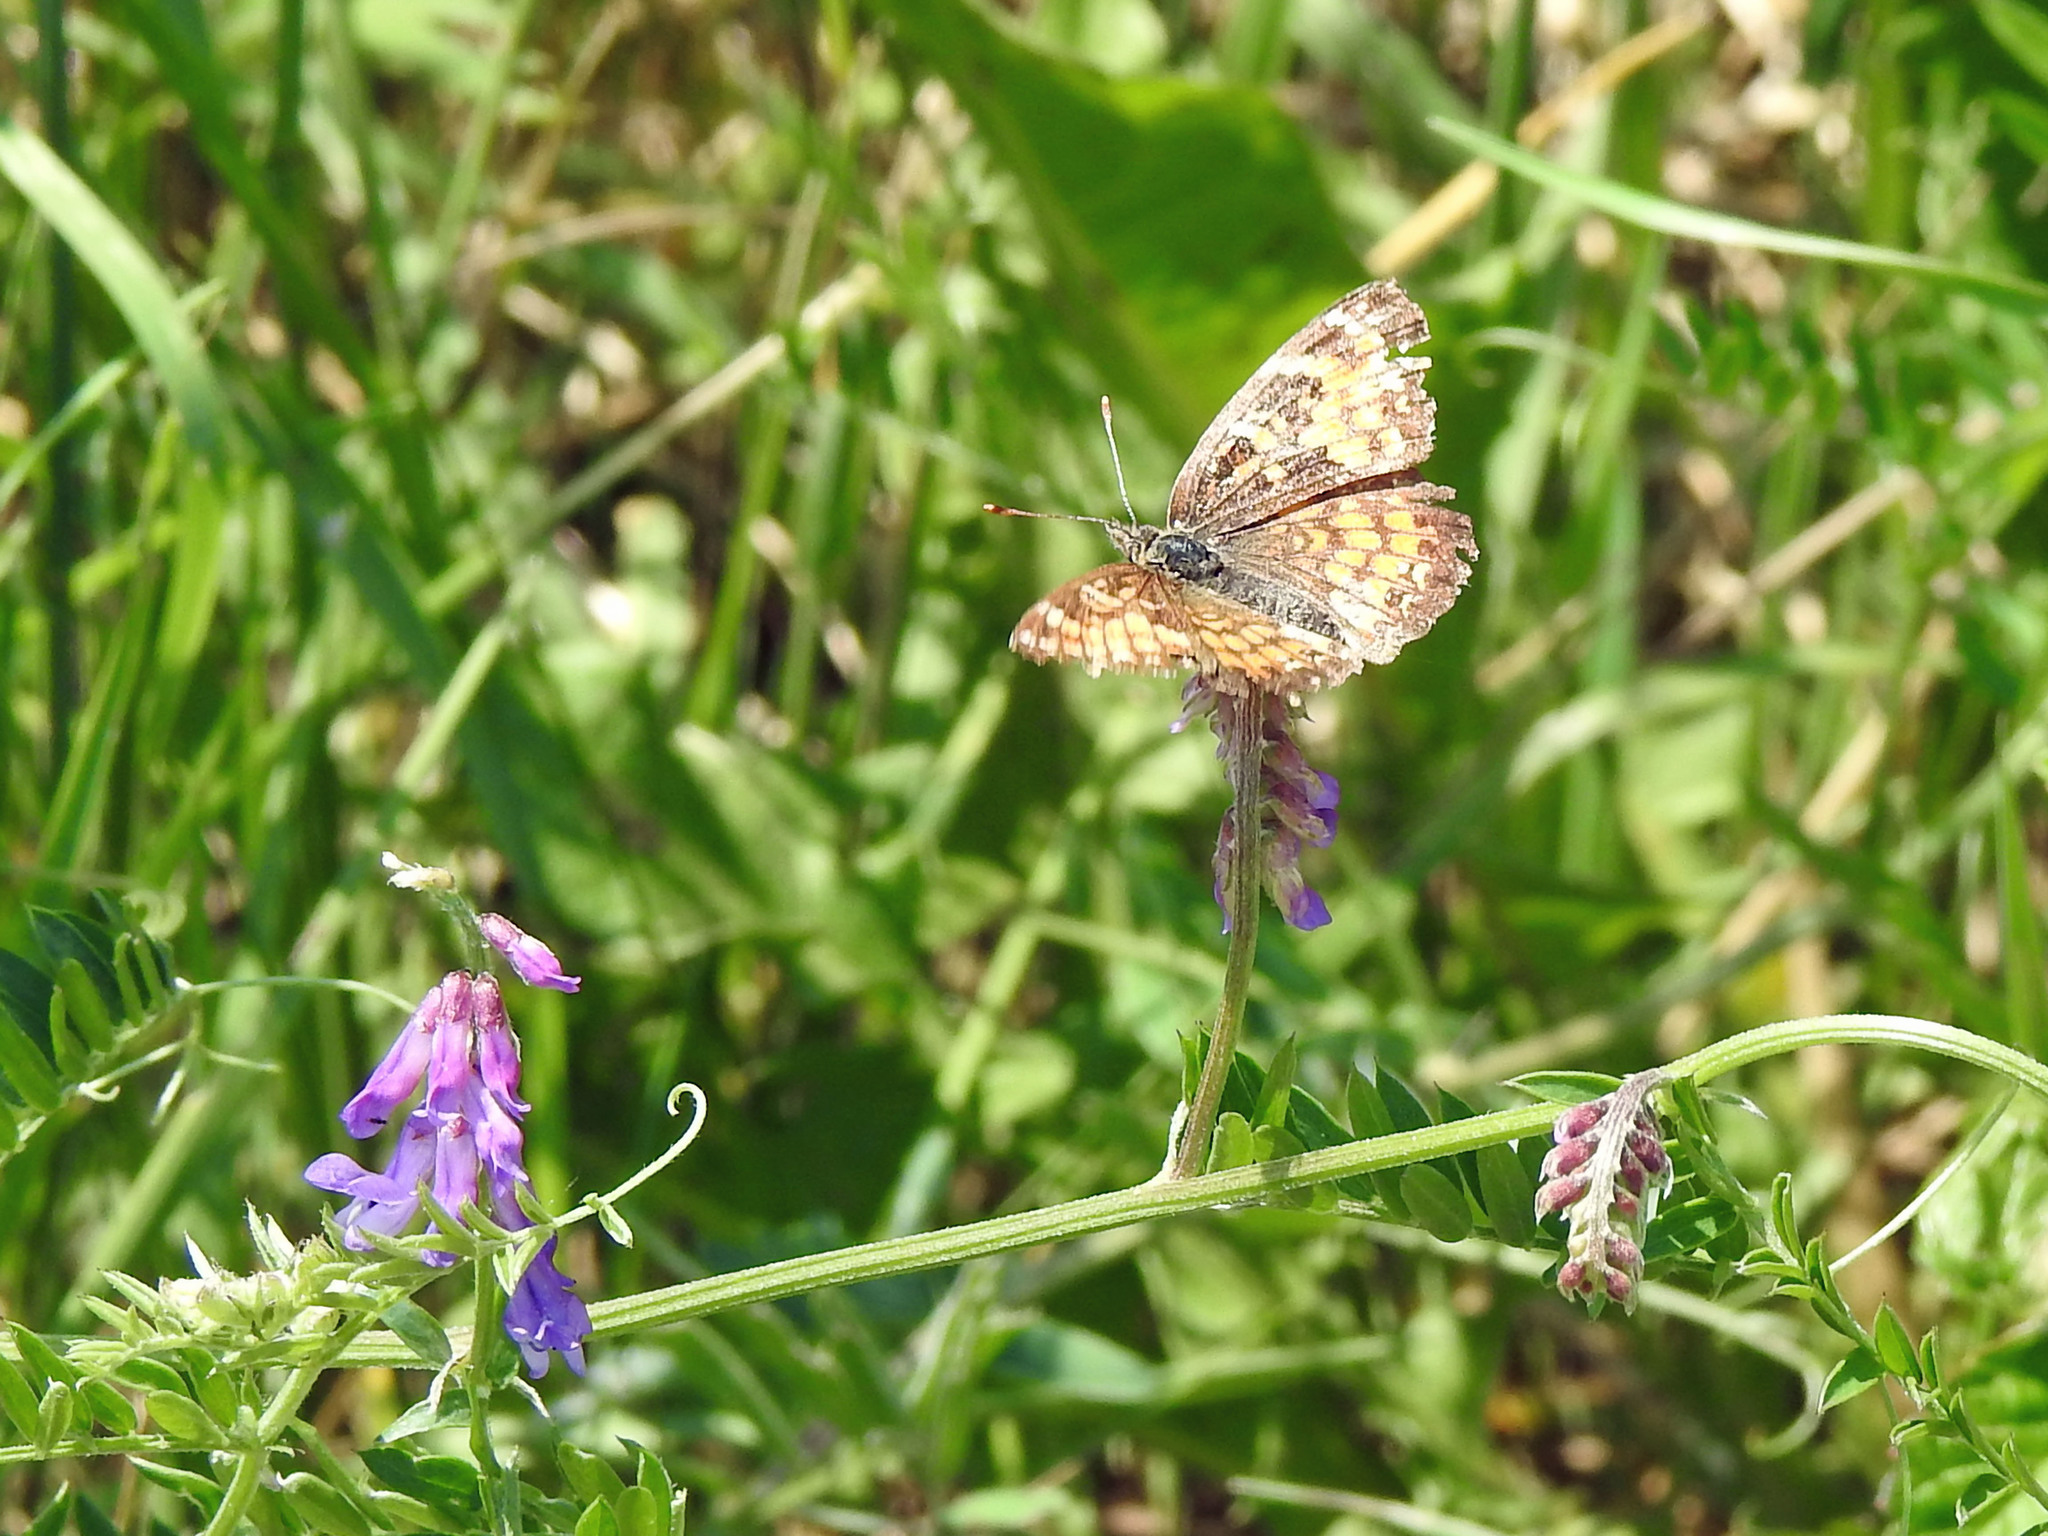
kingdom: Animalia
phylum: Arthropoda
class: Insecta
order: Lepidoptera
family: Nymphalidae
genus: Chlosyne
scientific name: Chlosyne harrisii
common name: Harris's checkerspot
